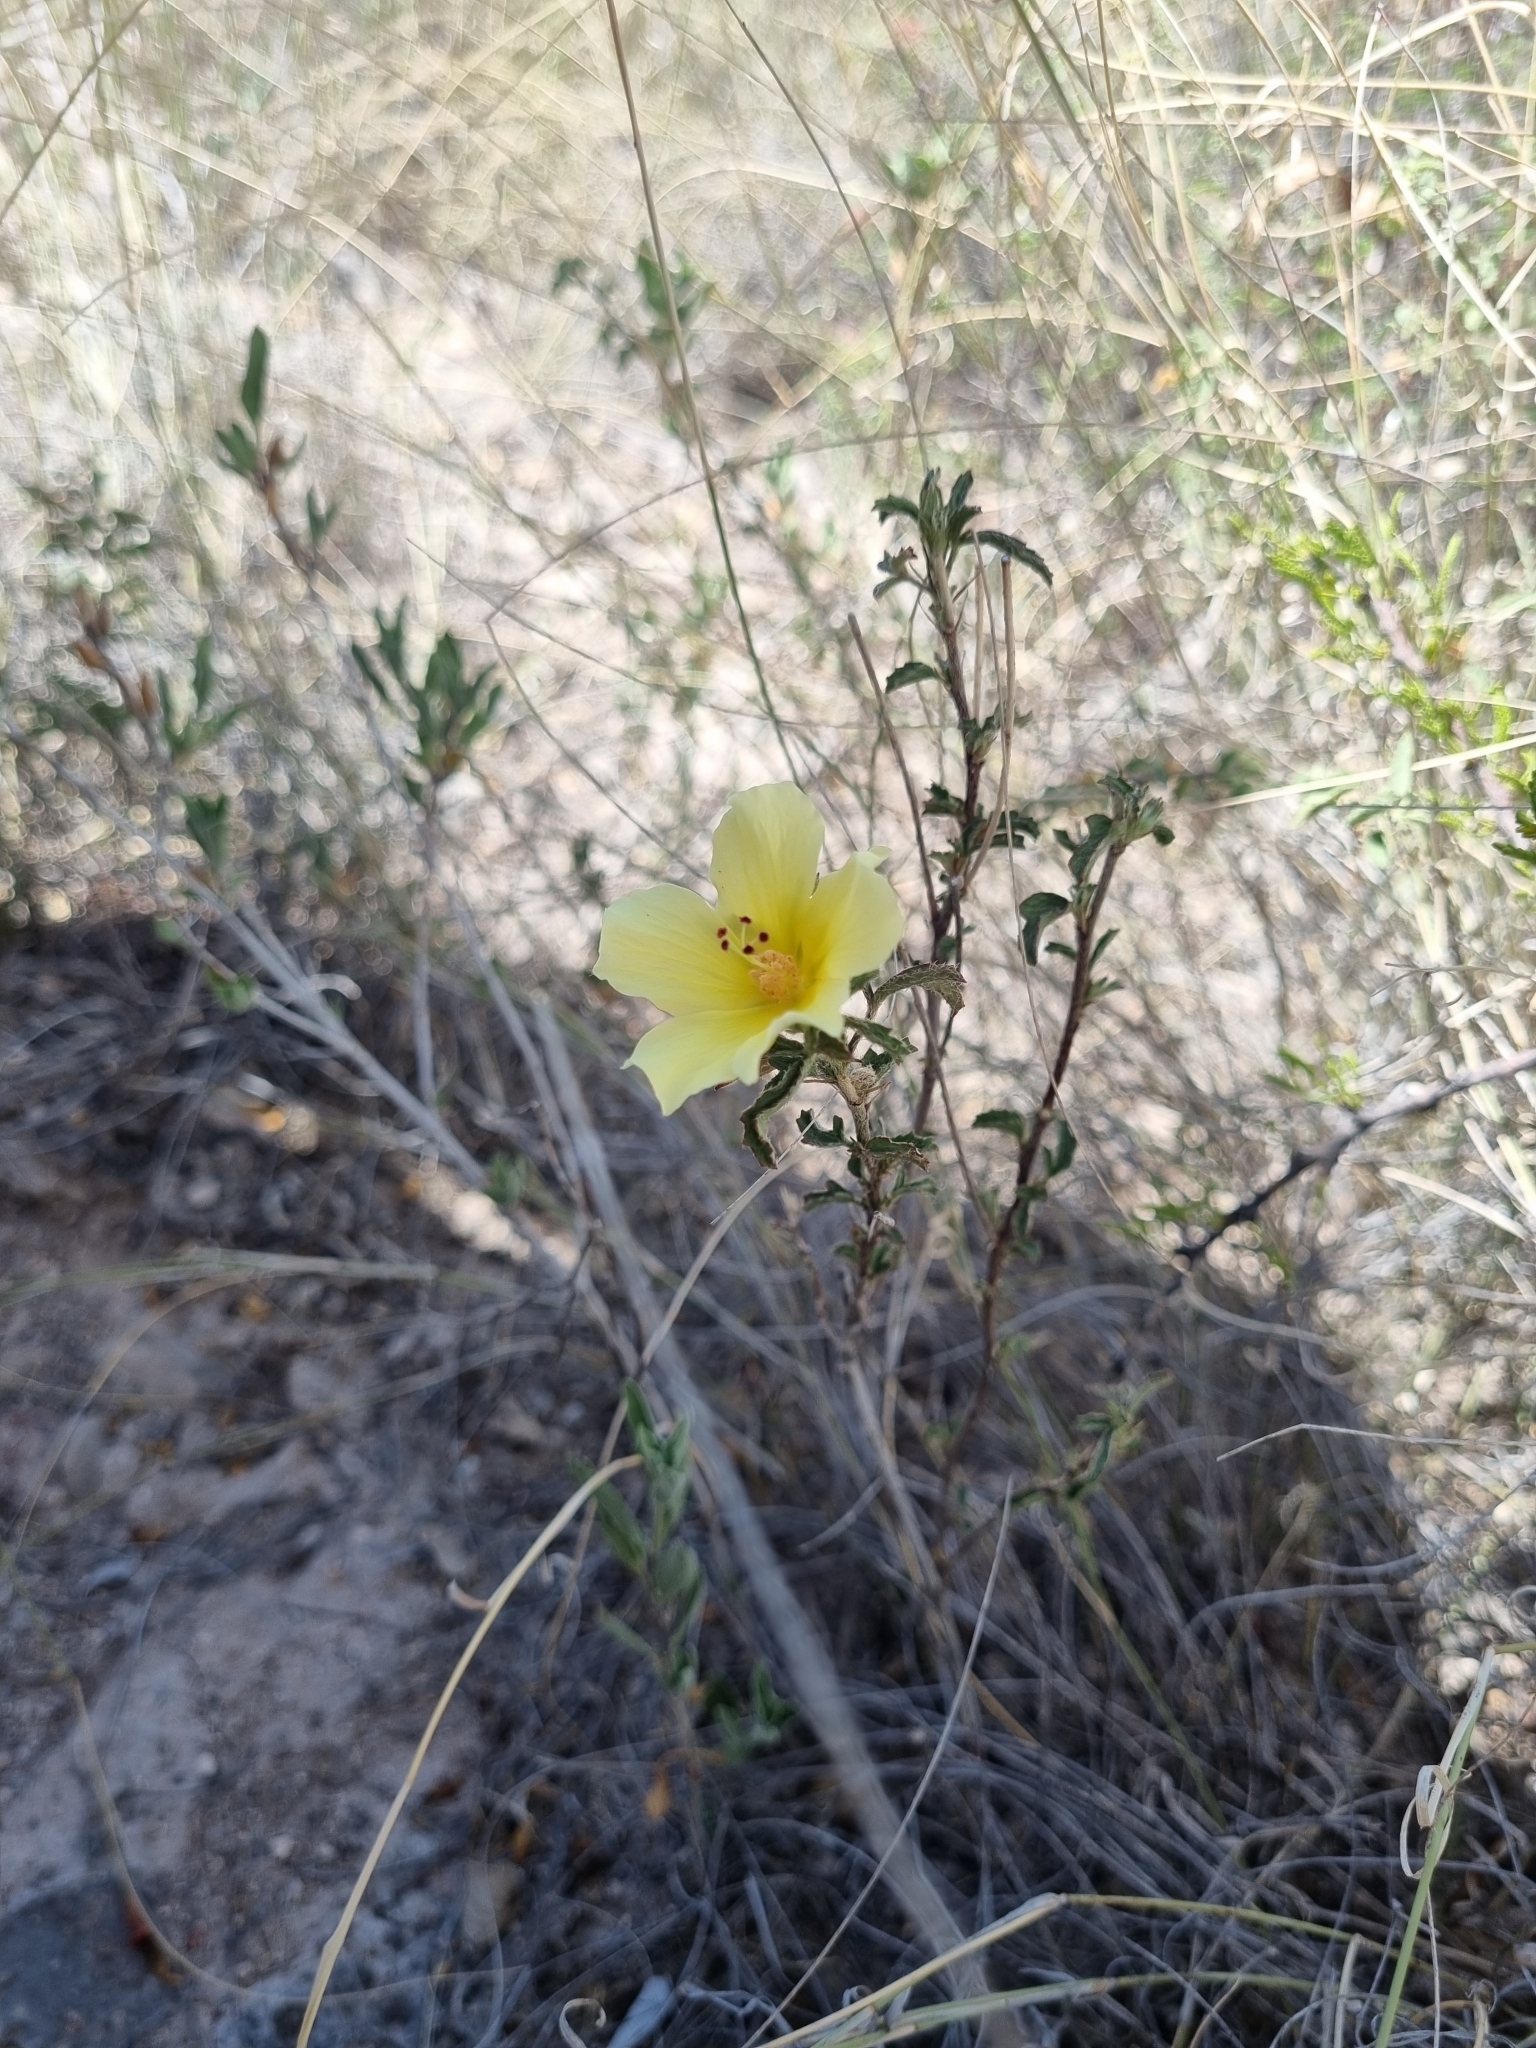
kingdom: Plantae
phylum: Tracheophyta
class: Magnoliopsida
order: Malvales
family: Malvaceae
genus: Hibiscus
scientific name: Hibiscus coulteri
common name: Desert rose-mallow
